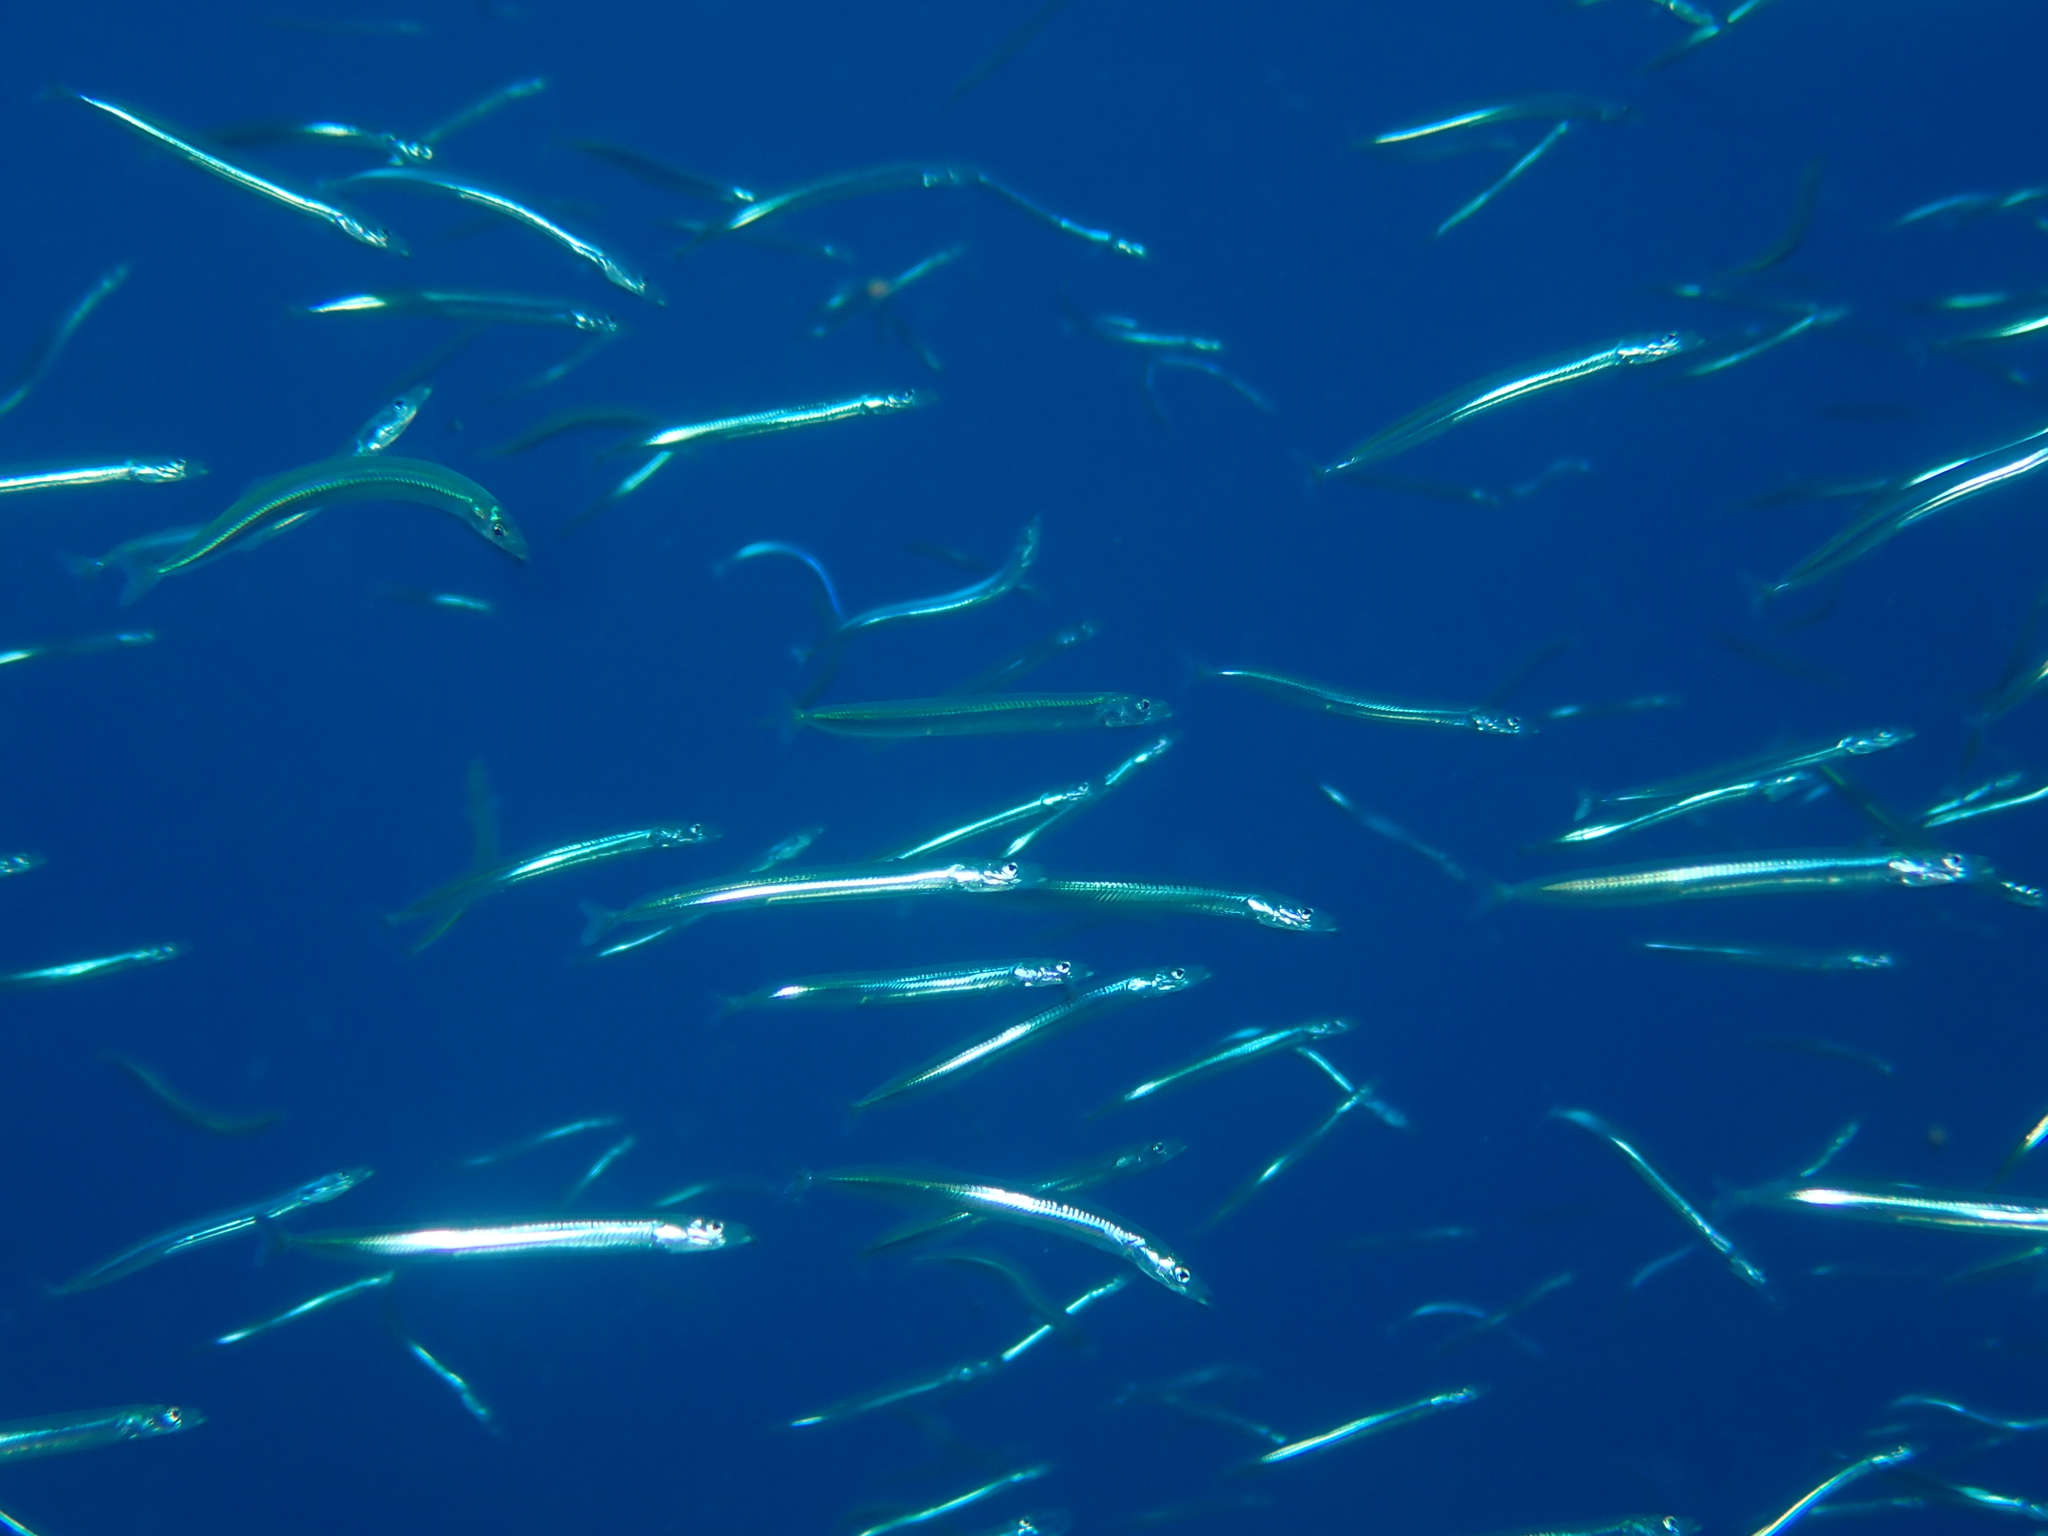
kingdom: Animalia
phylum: Chordata
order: Perciformes
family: Ammodytidae
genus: Gymnammodytes
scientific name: Gymnammodytes cicerelus
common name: Mediterranean sand eel
